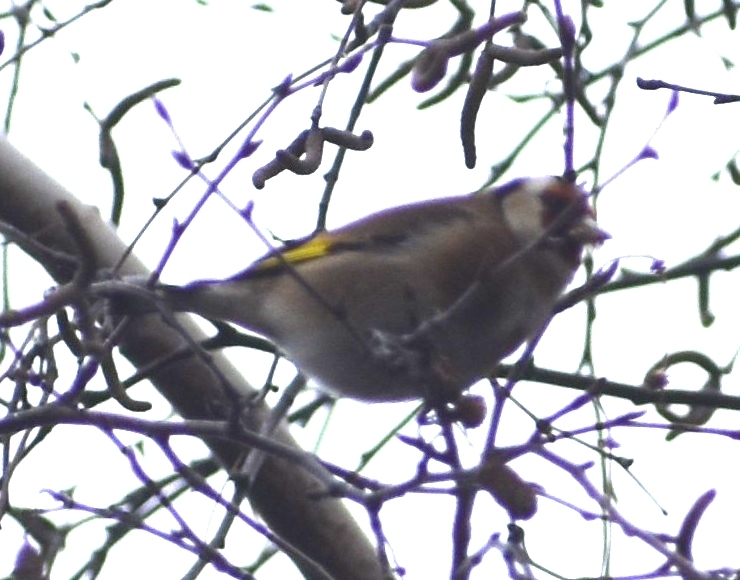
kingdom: Animalia
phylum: Chordata
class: Aves
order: Passeriformes
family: Fringillidae
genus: Carduelis
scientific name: Carduelis carduelis
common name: European goldfinch
